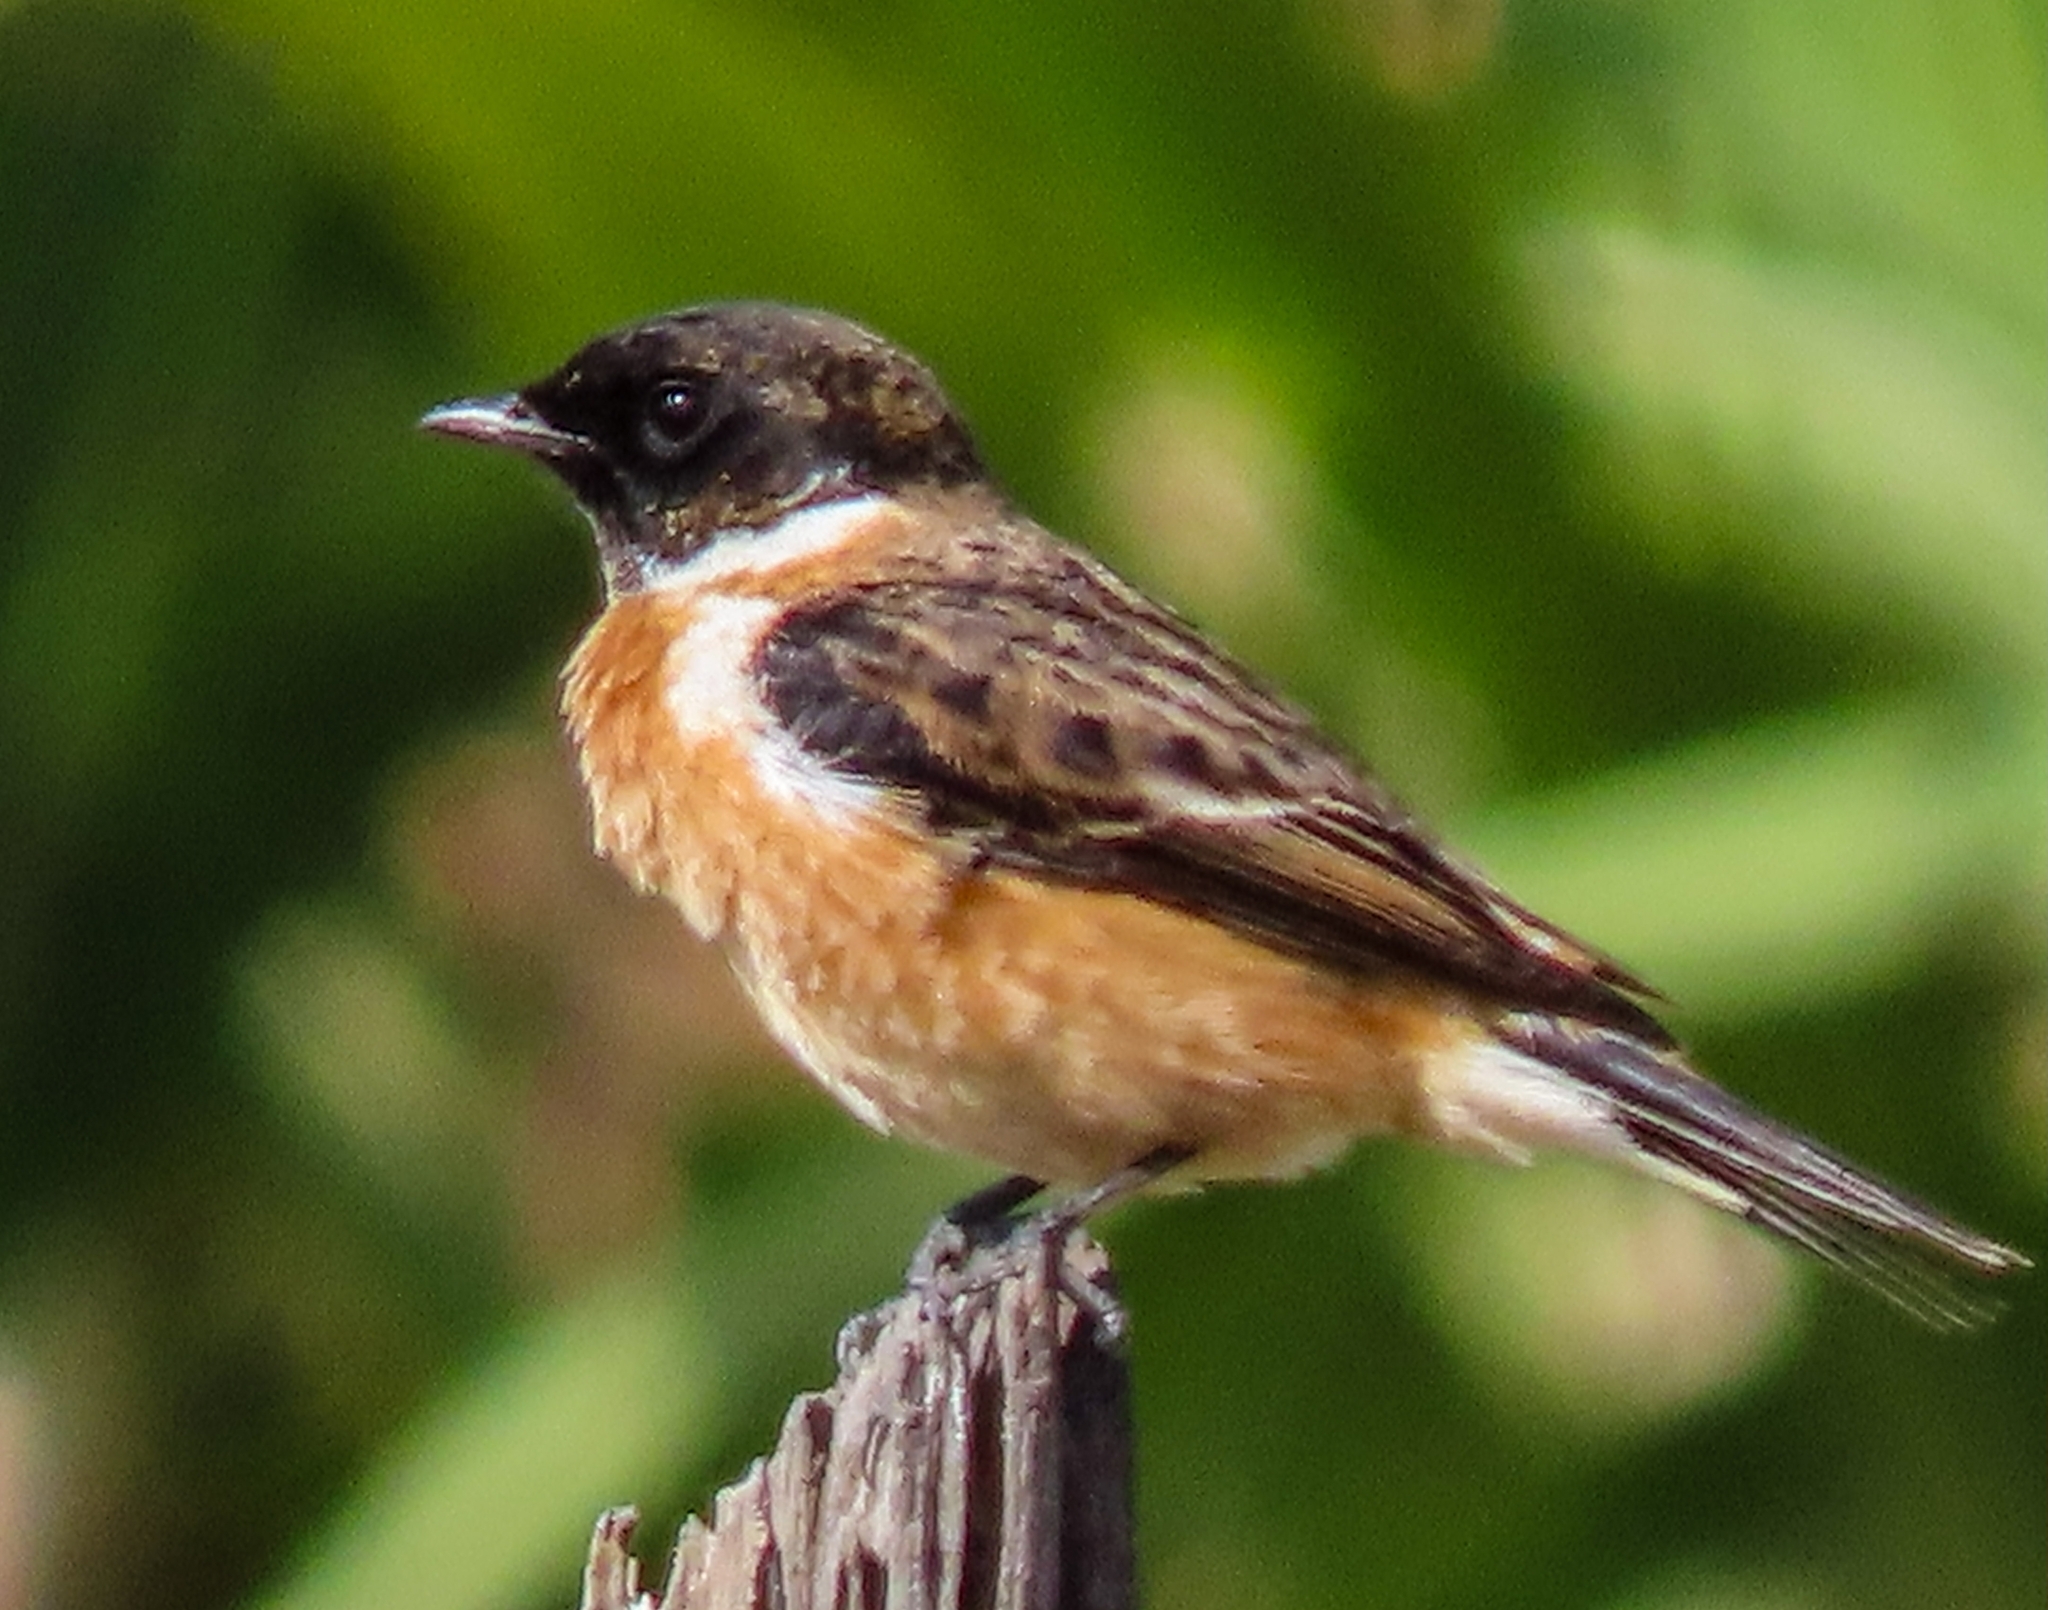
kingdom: Animalia
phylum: Chordata
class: Aves
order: Passeriformes
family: Muscicapidae
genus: Saxicola
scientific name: Saxicola stejnegeri
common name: Stejneger's stonechat
